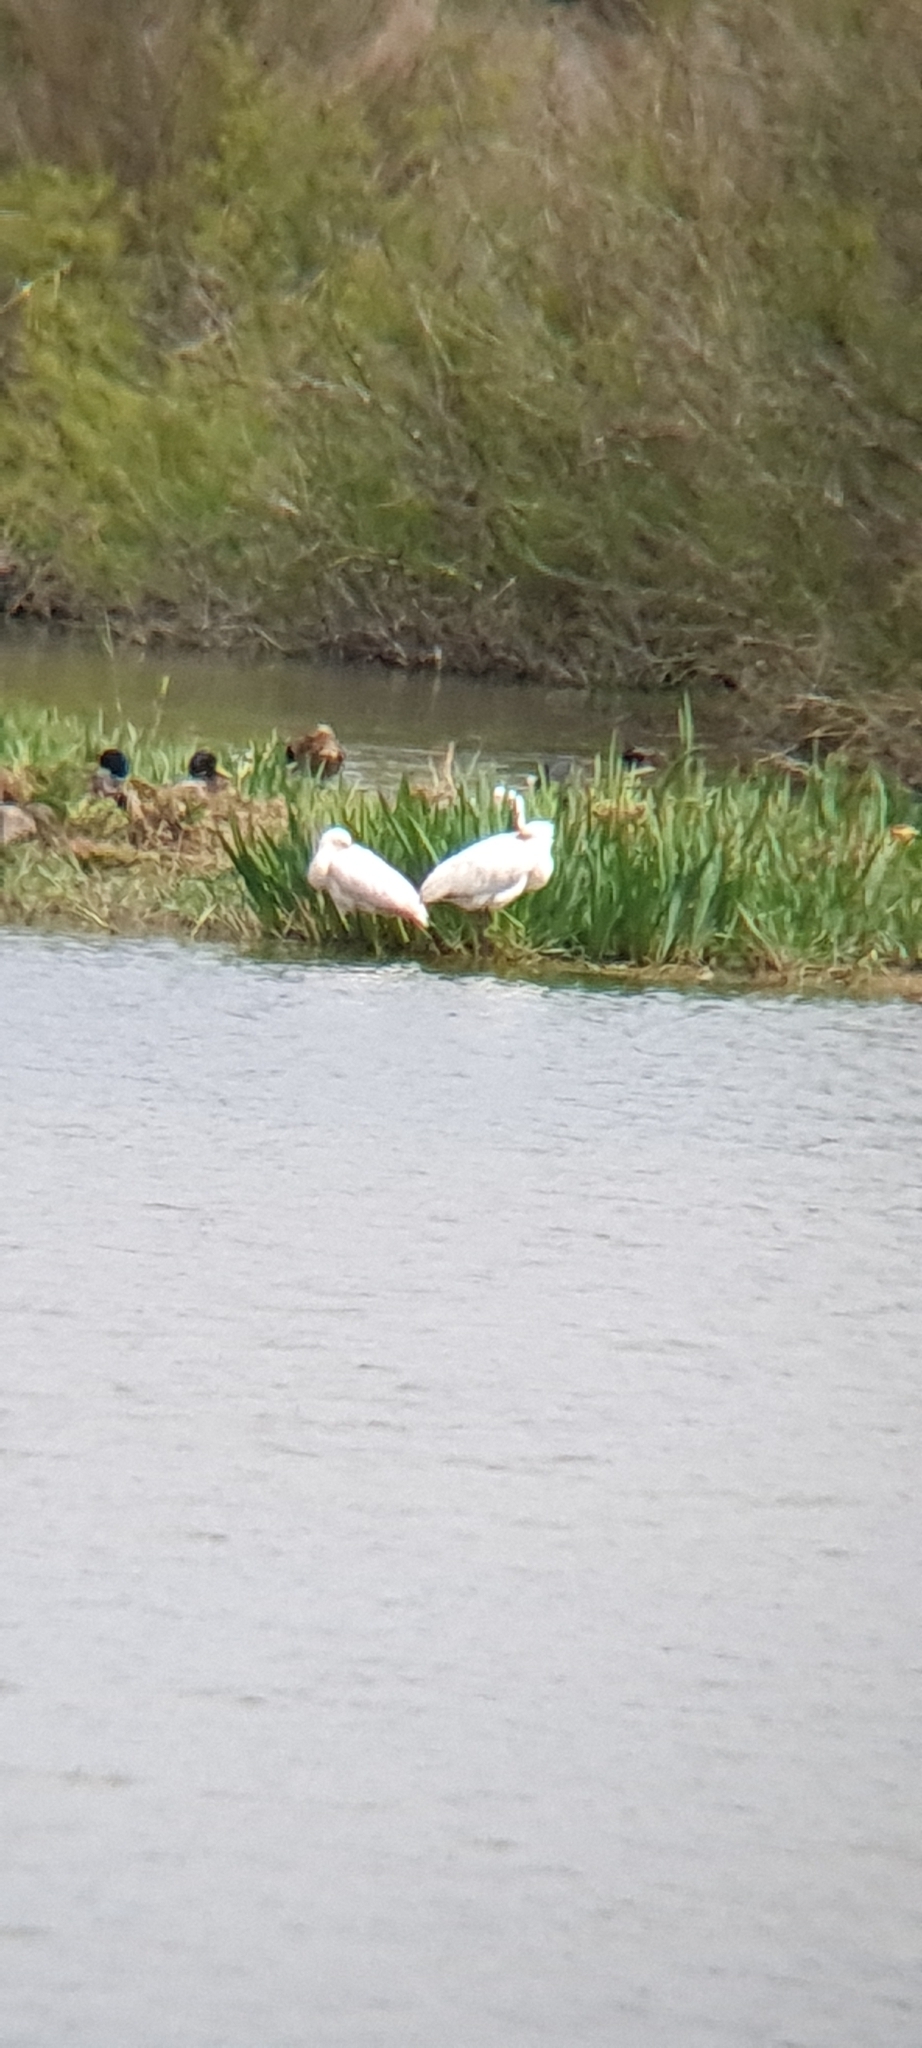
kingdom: Animalia
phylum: Chordata
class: Aves
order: Pelecaniformes
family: Threskiornithidae
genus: Platalea
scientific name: Platalea leucorodia
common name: Eurasian spoonbill
